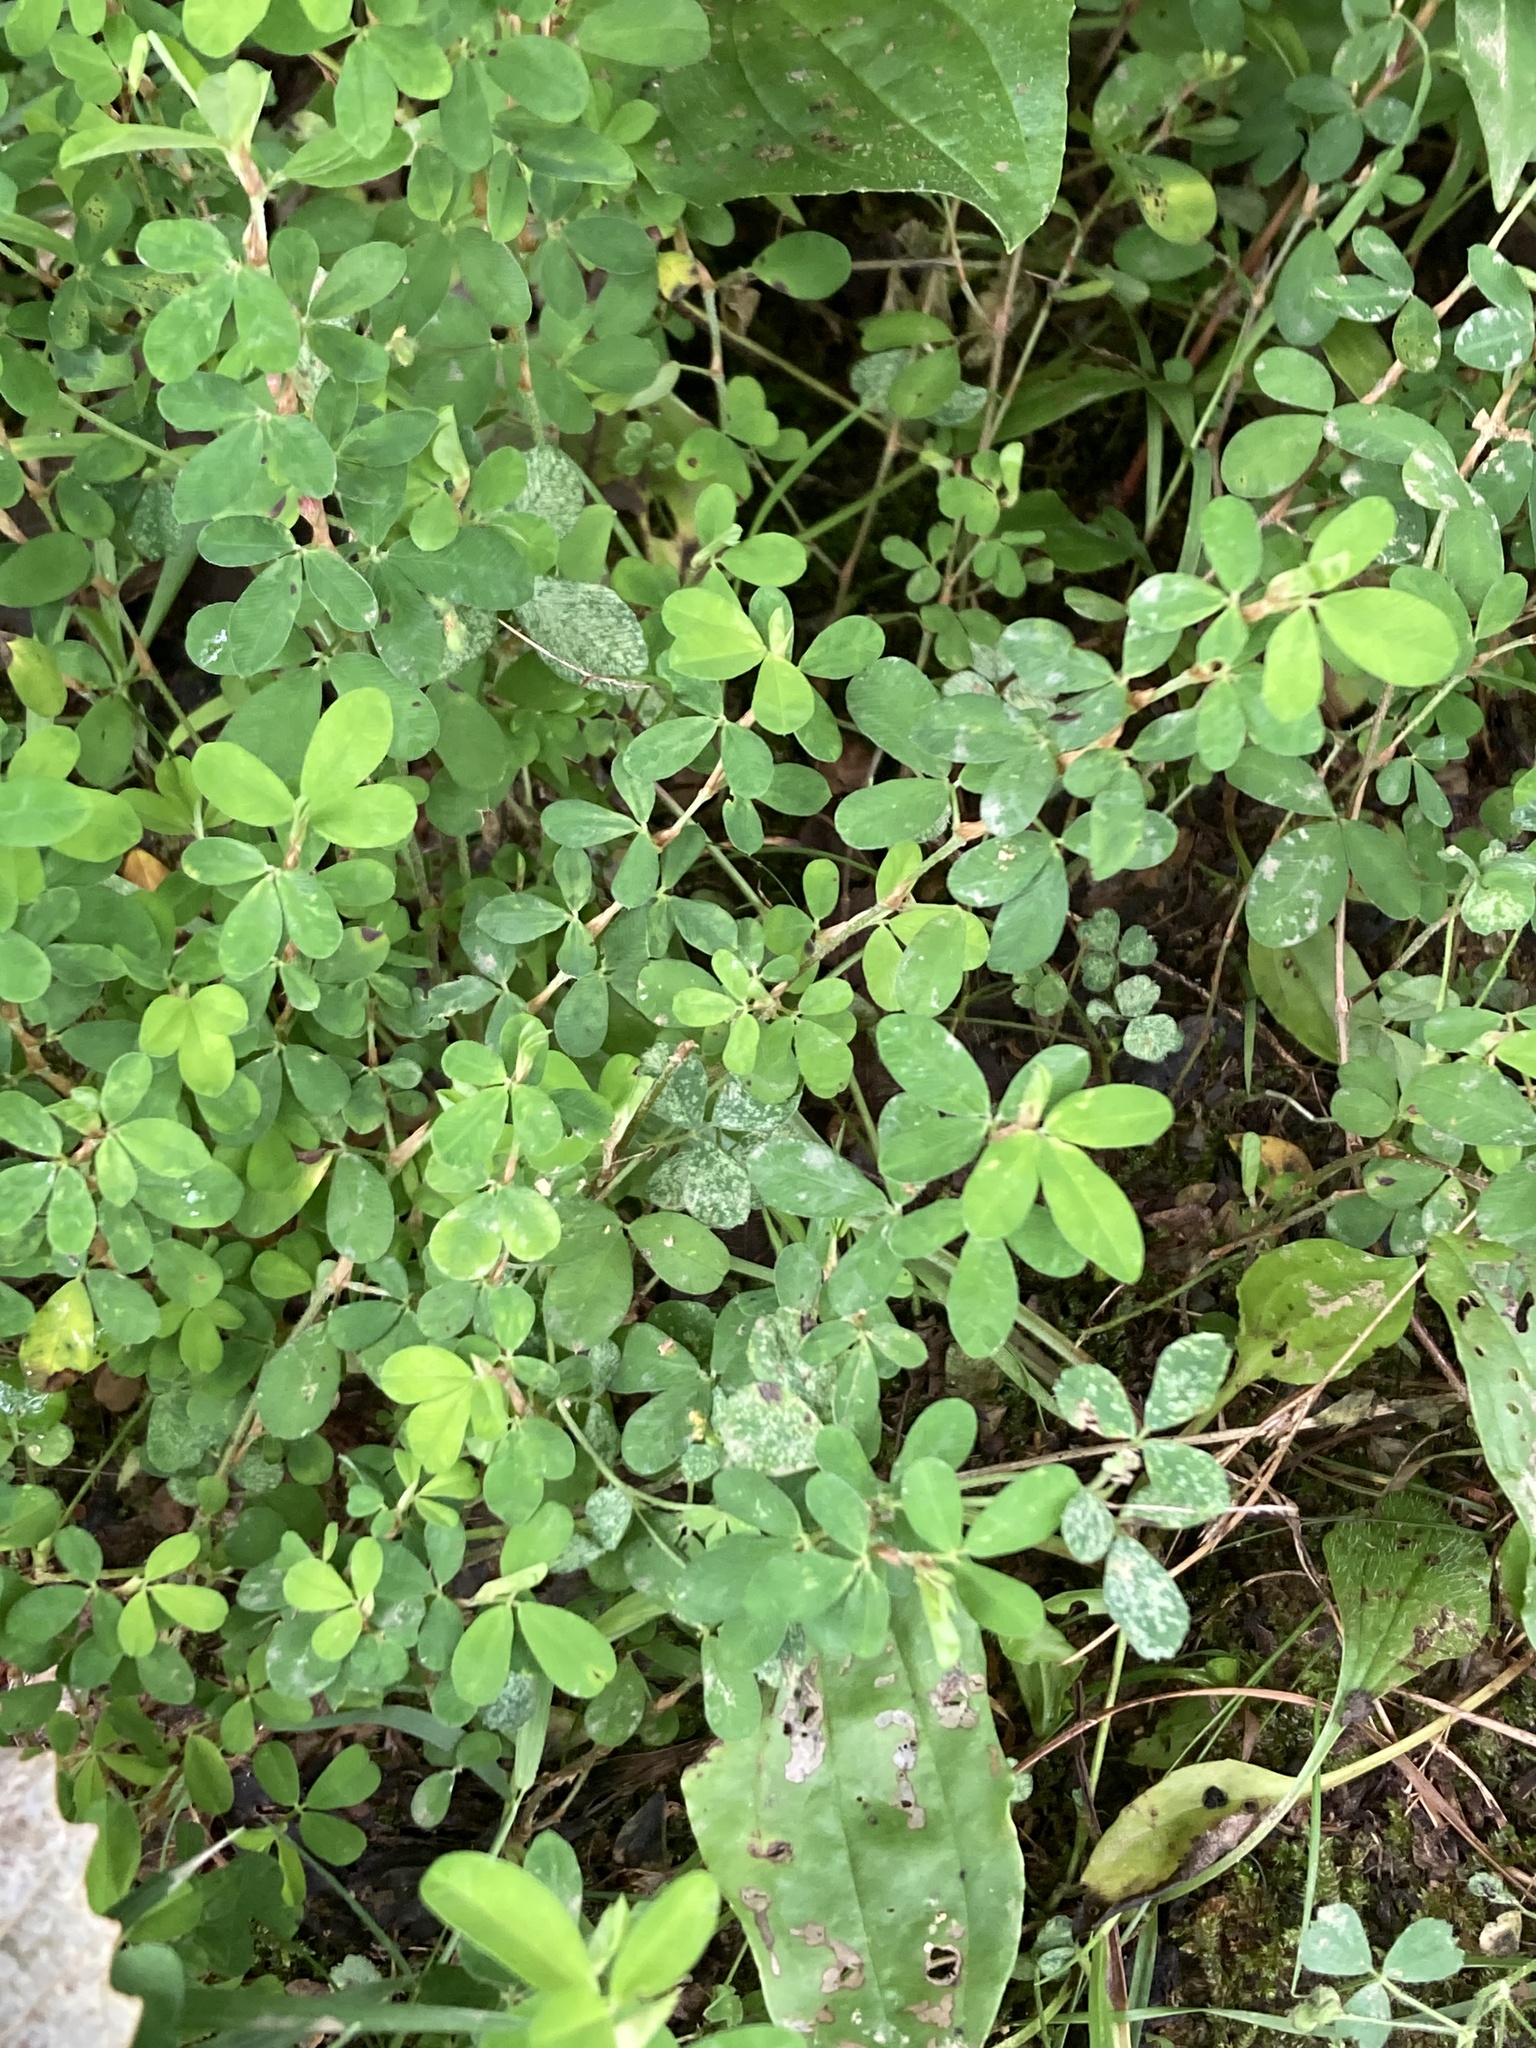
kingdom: Plantae
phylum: Tracheophyta
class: Magnoliopsida
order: Fabales
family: Fabaceae
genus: Kummerowia
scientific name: Kummerowia striata
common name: Japanese clover
